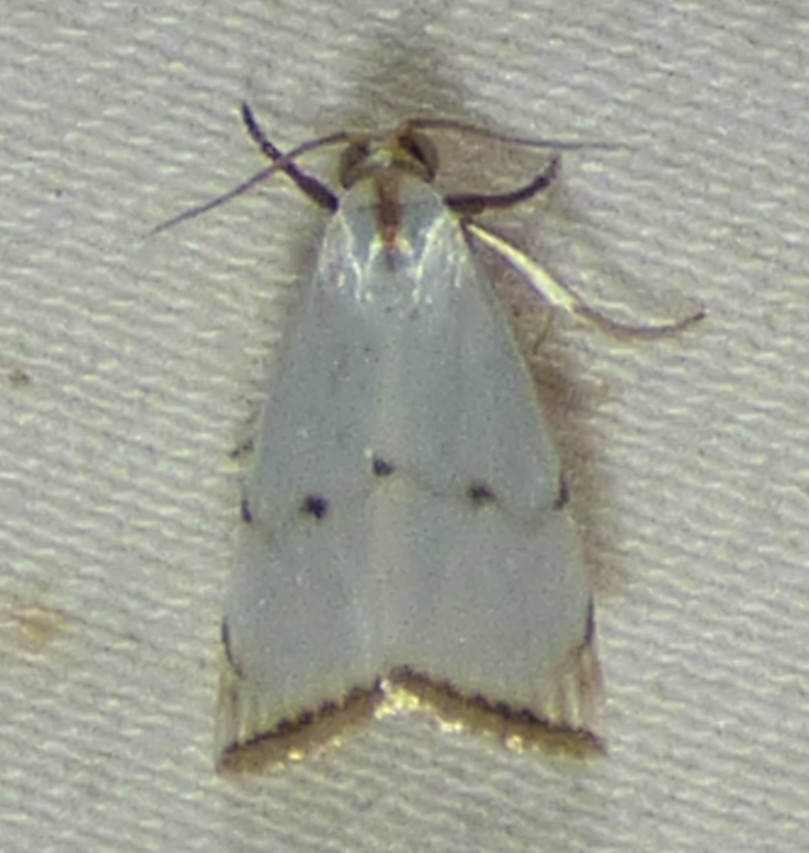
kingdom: Animalia
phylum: Arthropoda
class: Insecta
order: Lepidoptera
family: Crambidae
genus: Argyria
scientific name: Argyria pusillalis
